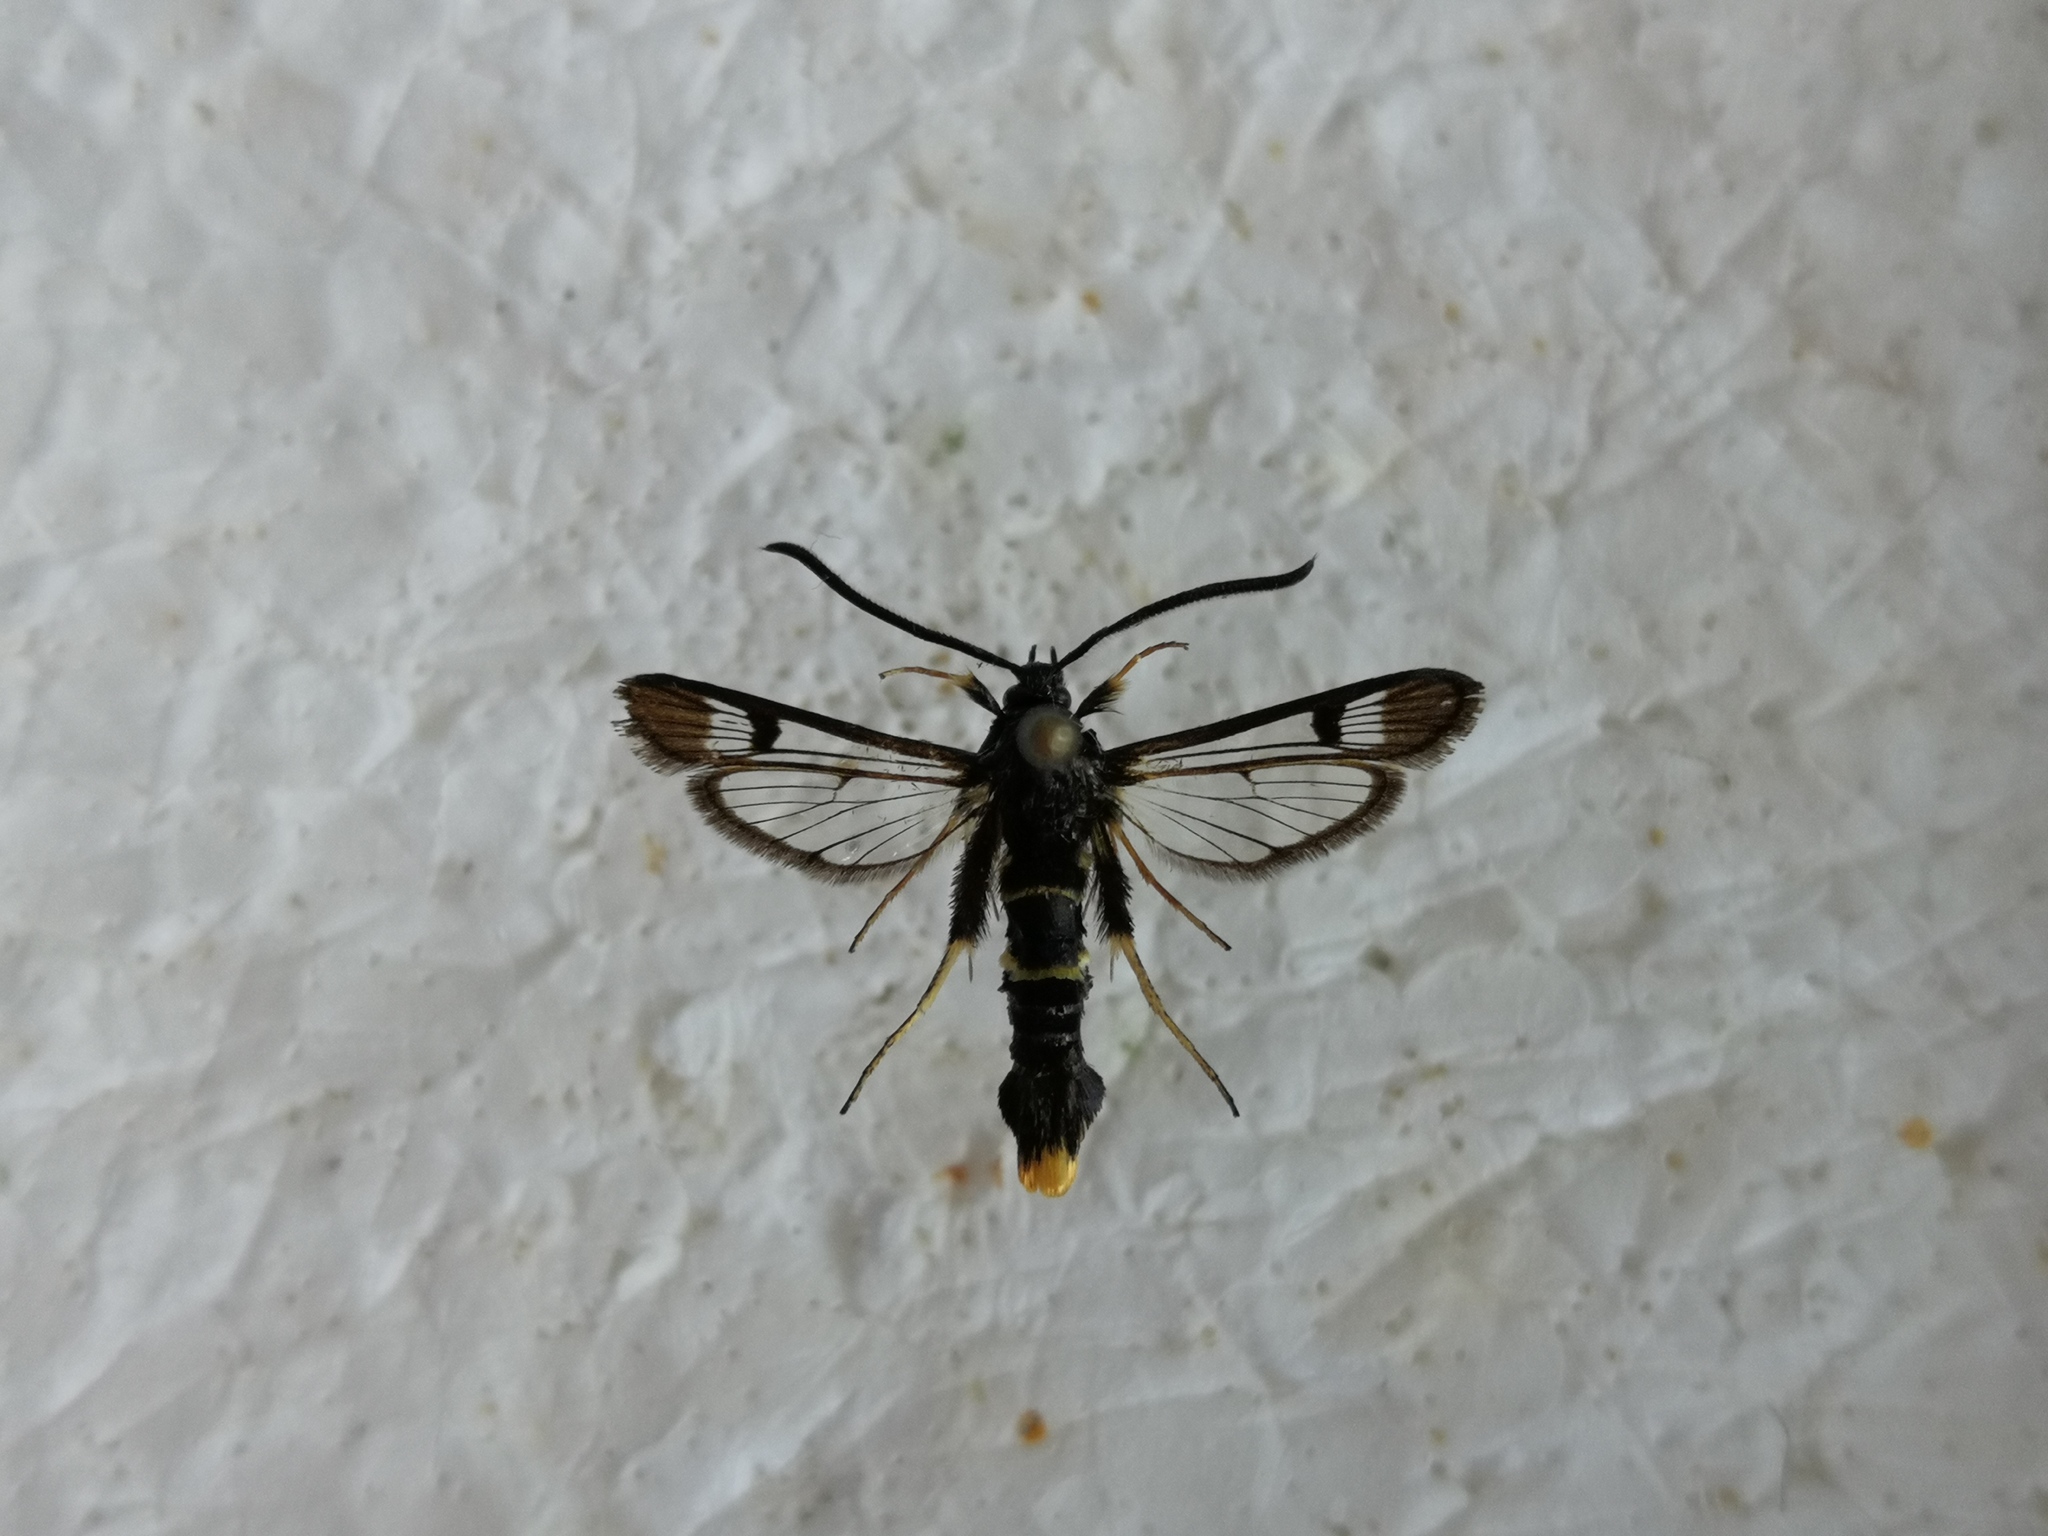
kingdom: Animalia
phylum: Arthropoda
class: Insecta
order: Lepidoptera
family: Sesiidae
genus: Synanthedon
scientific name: Synanthedon andrenaeformis
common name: Orange-tailed clearwing
